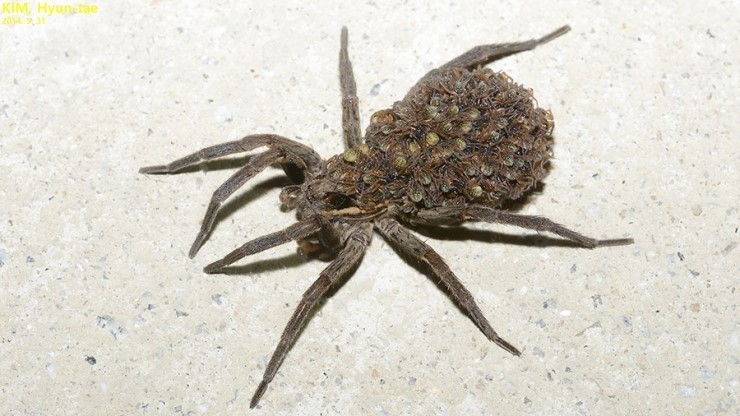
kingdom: Animalia
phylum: Arthropoda
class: Arachnida
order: Araneae
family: Lycosidae
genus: Lycosa
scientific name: Lycosa suzukii
